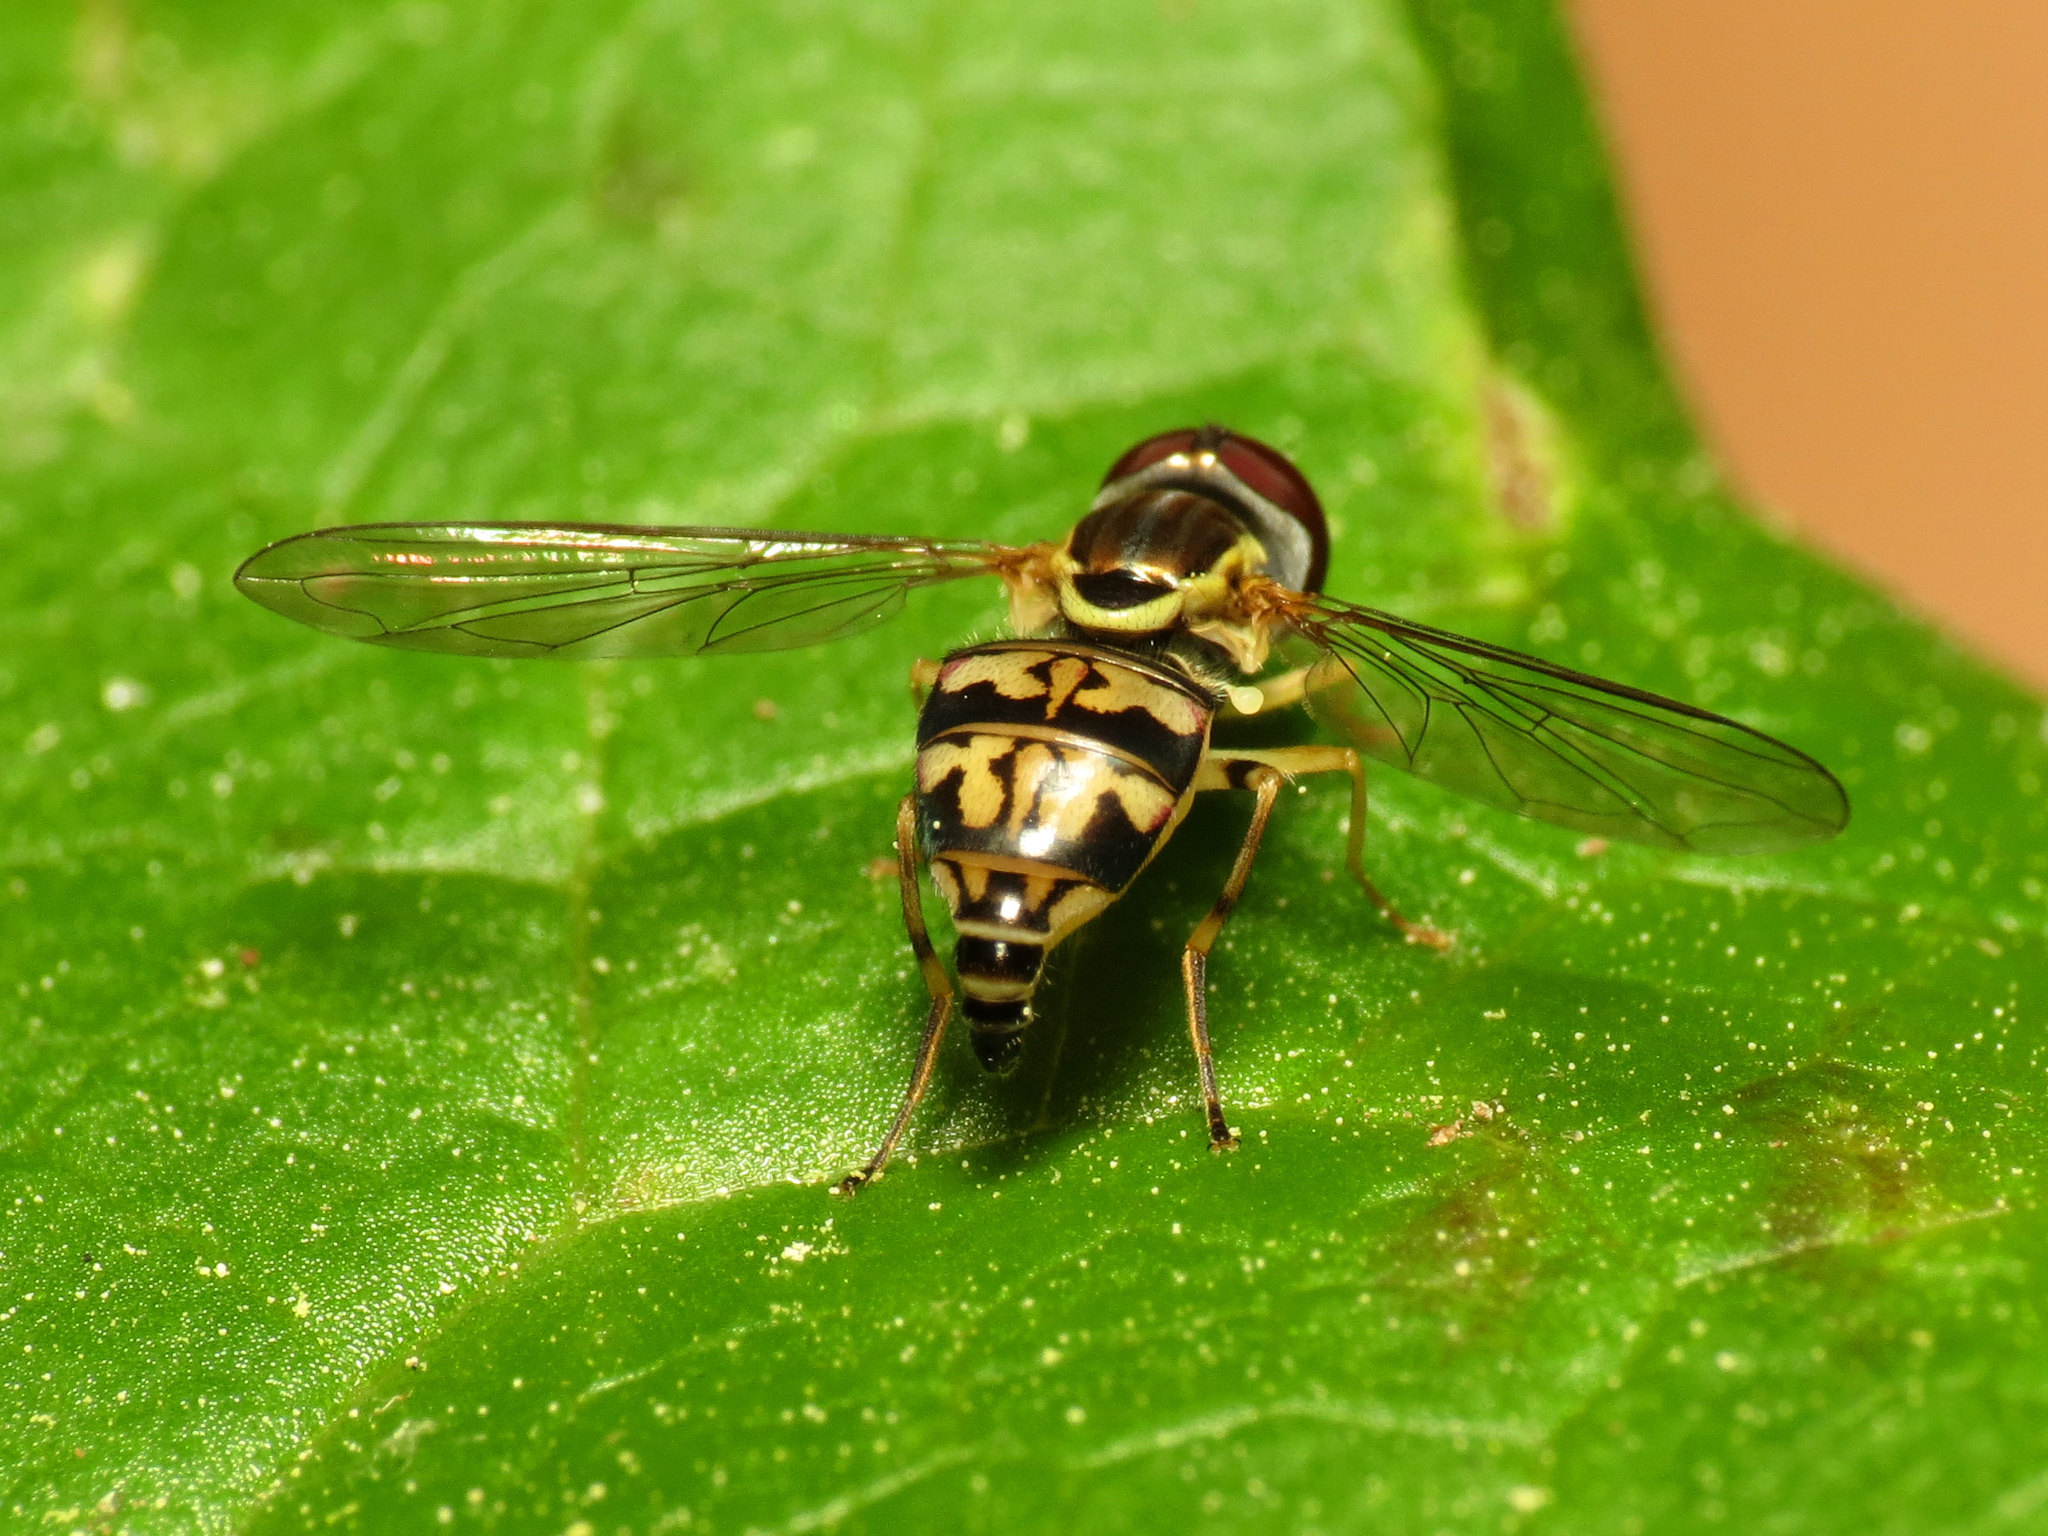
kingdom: Animalia
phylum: Arthropoda
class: Insecta
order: Diptera
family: Syrphidae
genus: Toxomerus
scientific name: Toxomerus geminatus
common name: Eastern calligrapher
